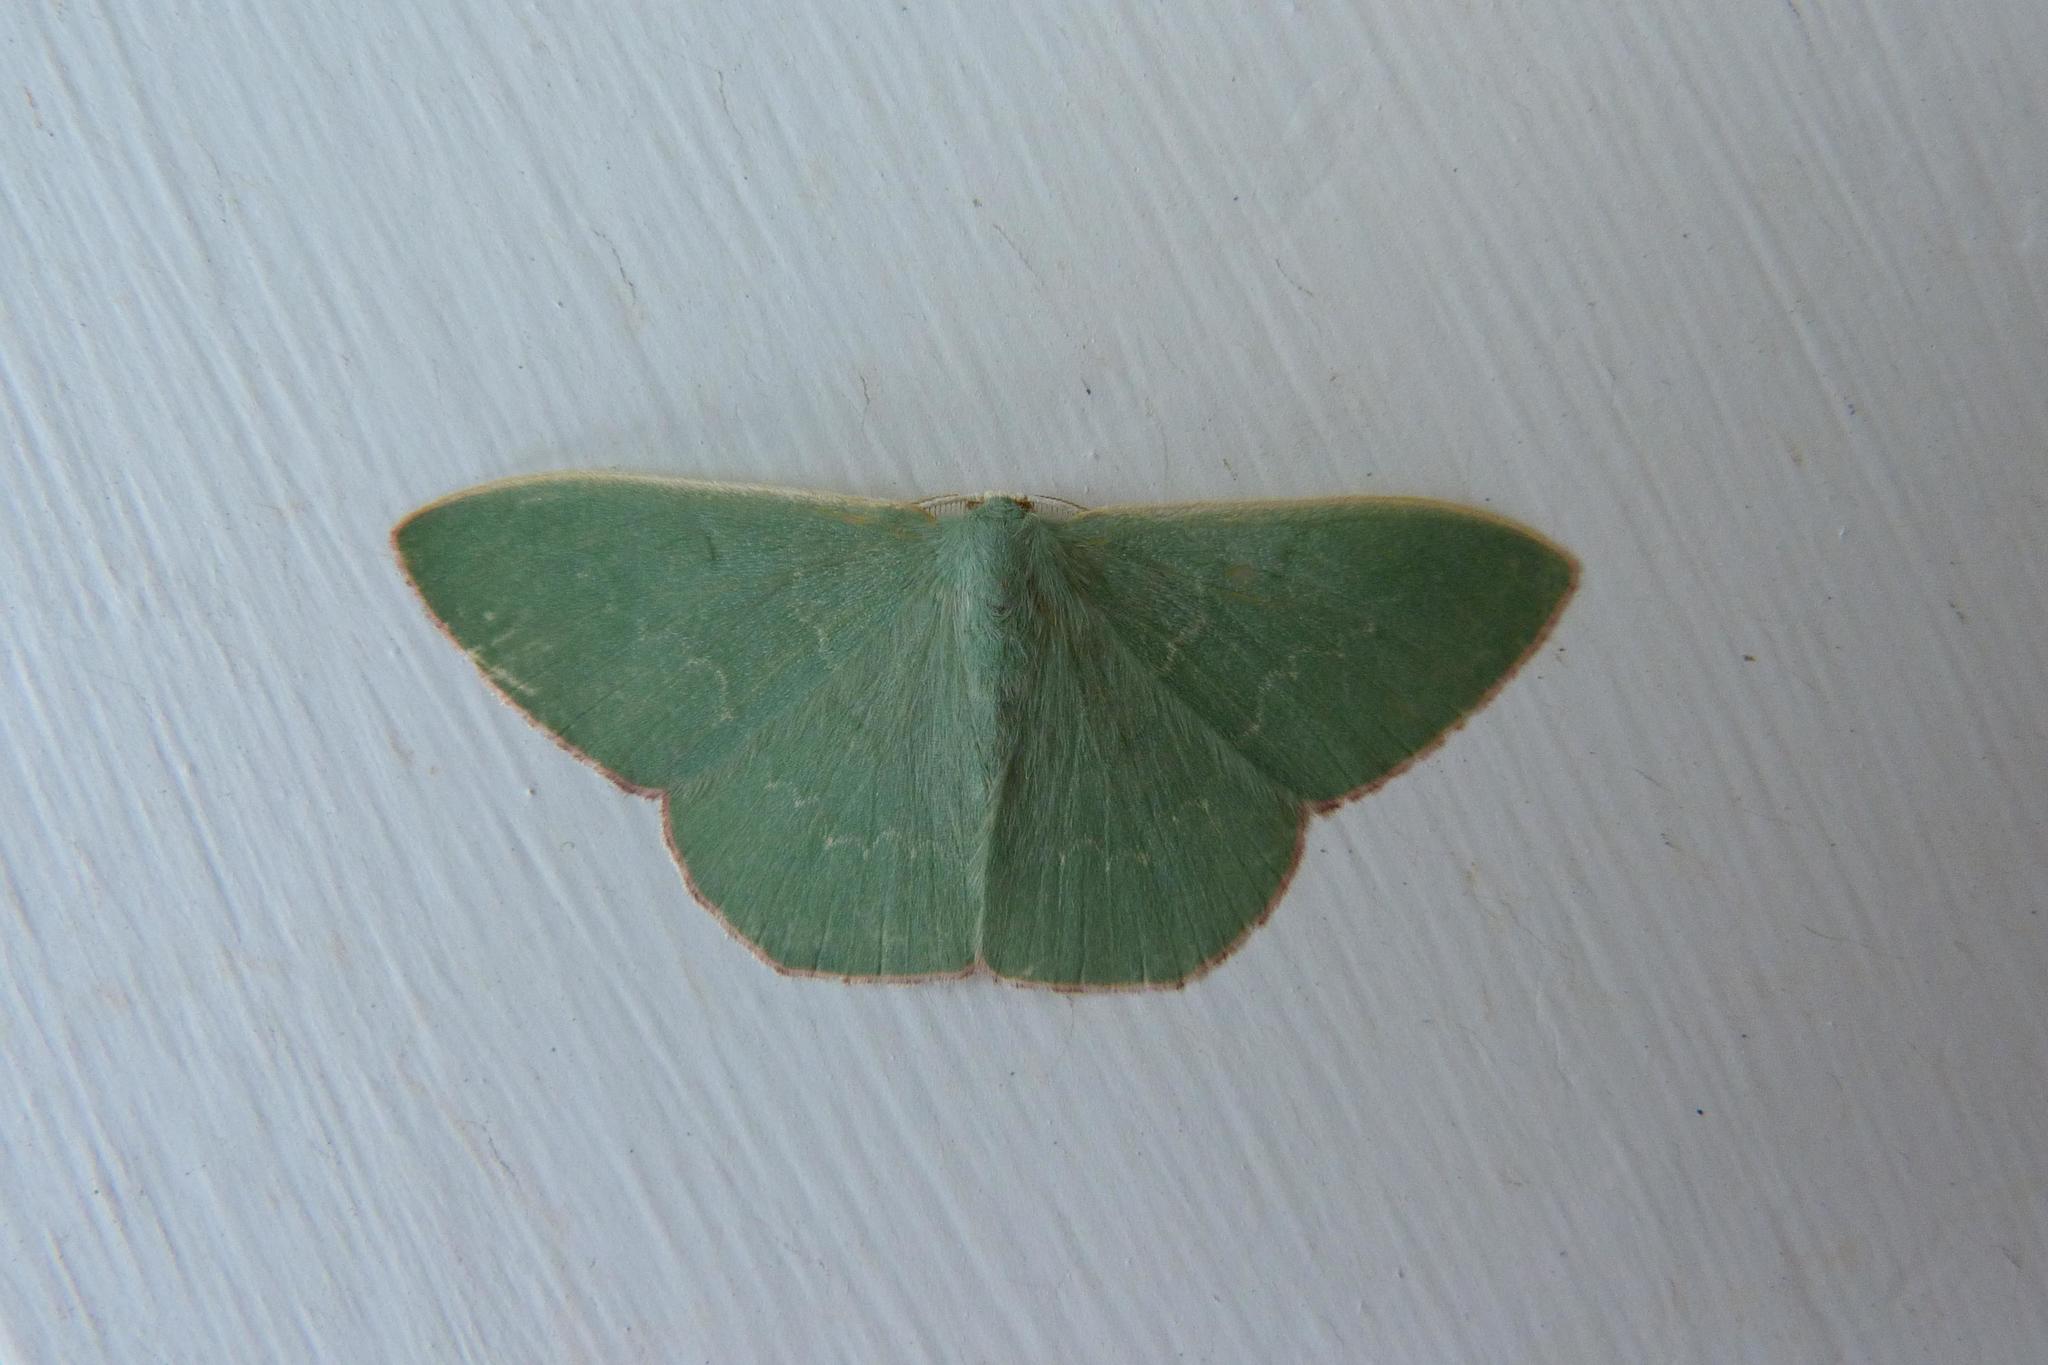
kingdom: Animalia
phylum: Arthropoda
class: Insecta
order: Lepidoptera
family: Geometridae
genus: Prasinocyma
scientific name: Prasinocyma semicrocea
